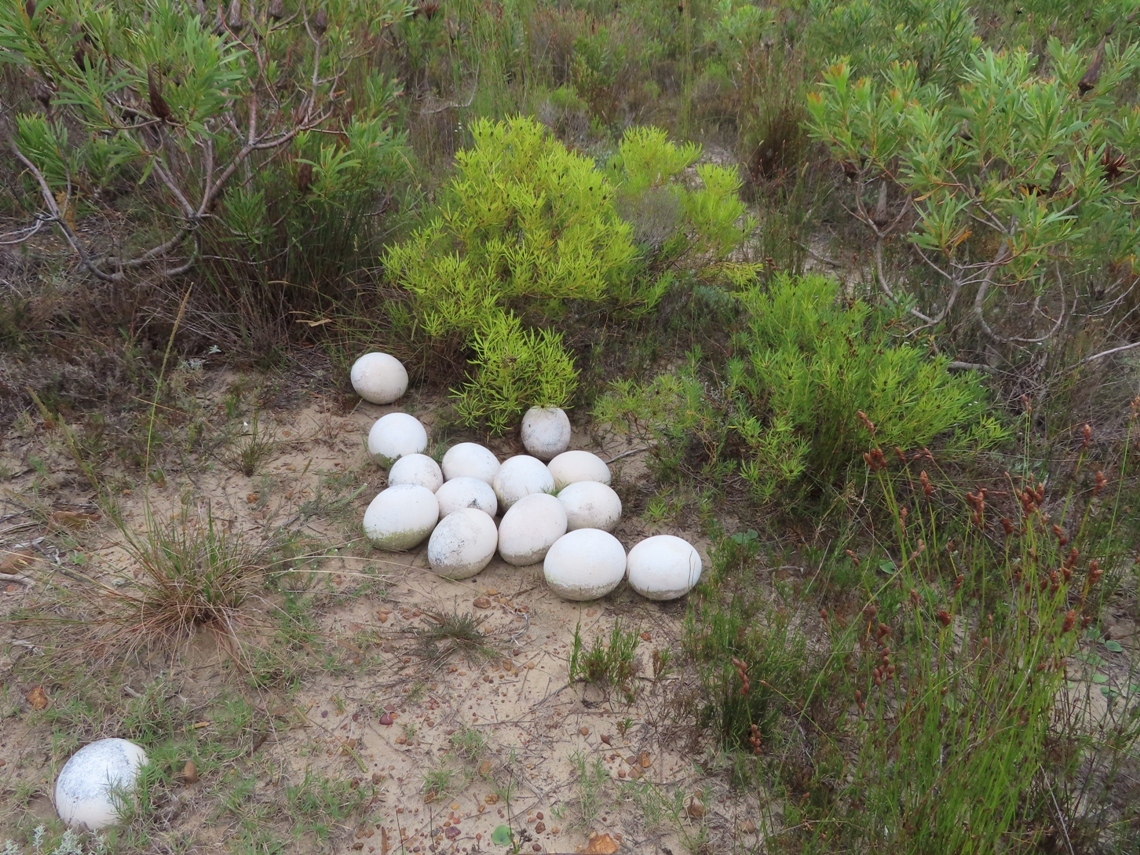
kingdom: Animalia
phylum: Chordata
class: Aves
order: Struthioniformes
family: Struthionidae
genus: Struthio
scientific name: Struthio camelus
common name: Common ostrich
